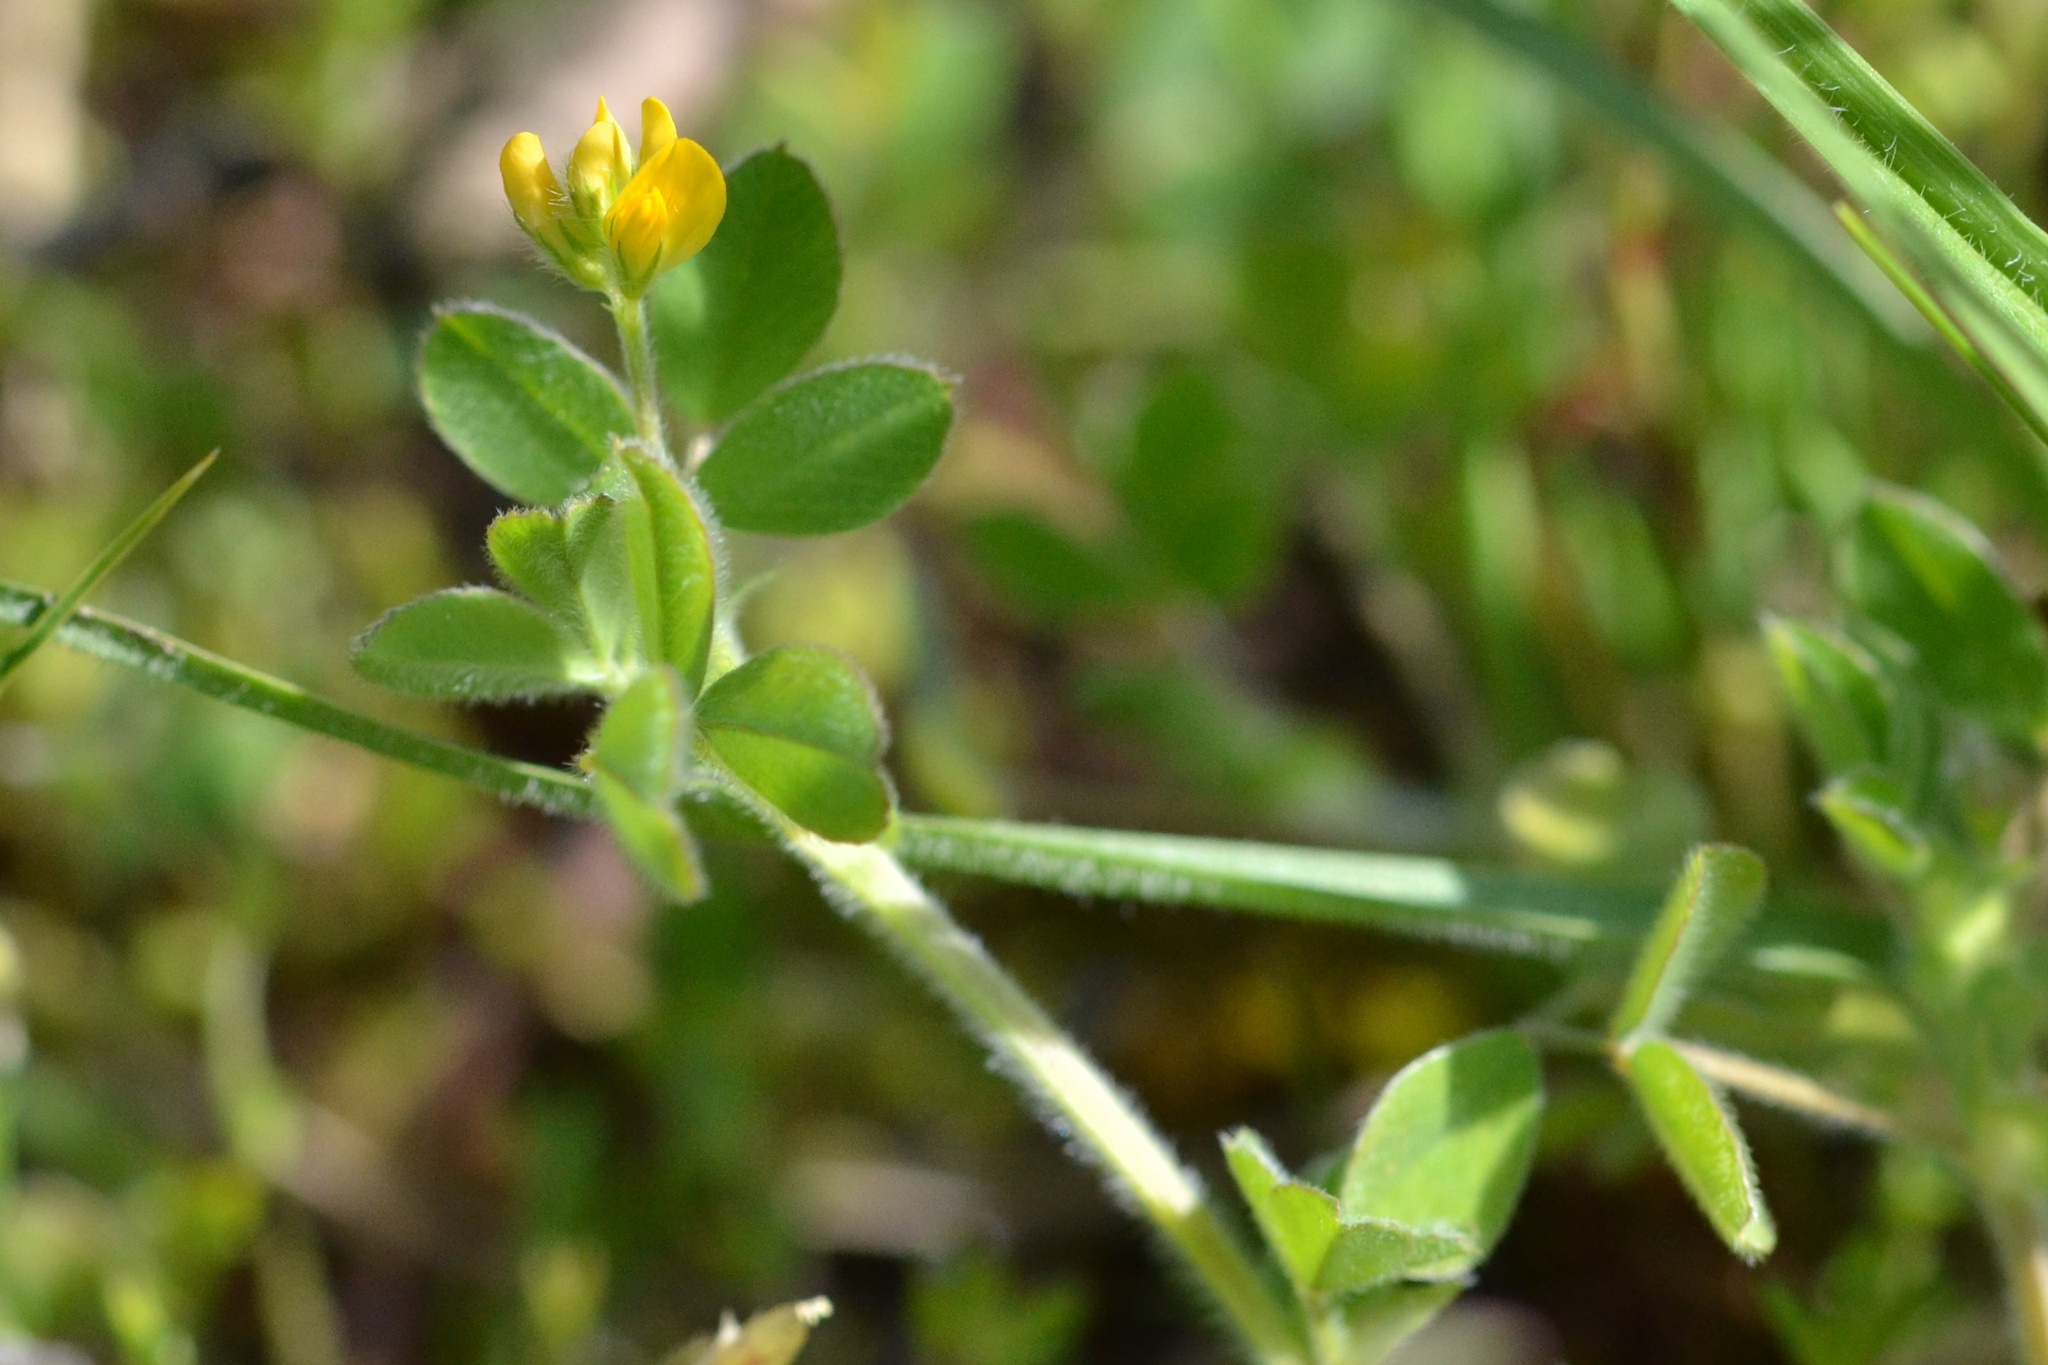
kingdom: Plantae
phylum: Tracheophyta
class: Magnoliopsida
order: Fabales
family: Fabaceae
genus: Medicago
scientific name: Medicago minima
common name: Little bur-clover
